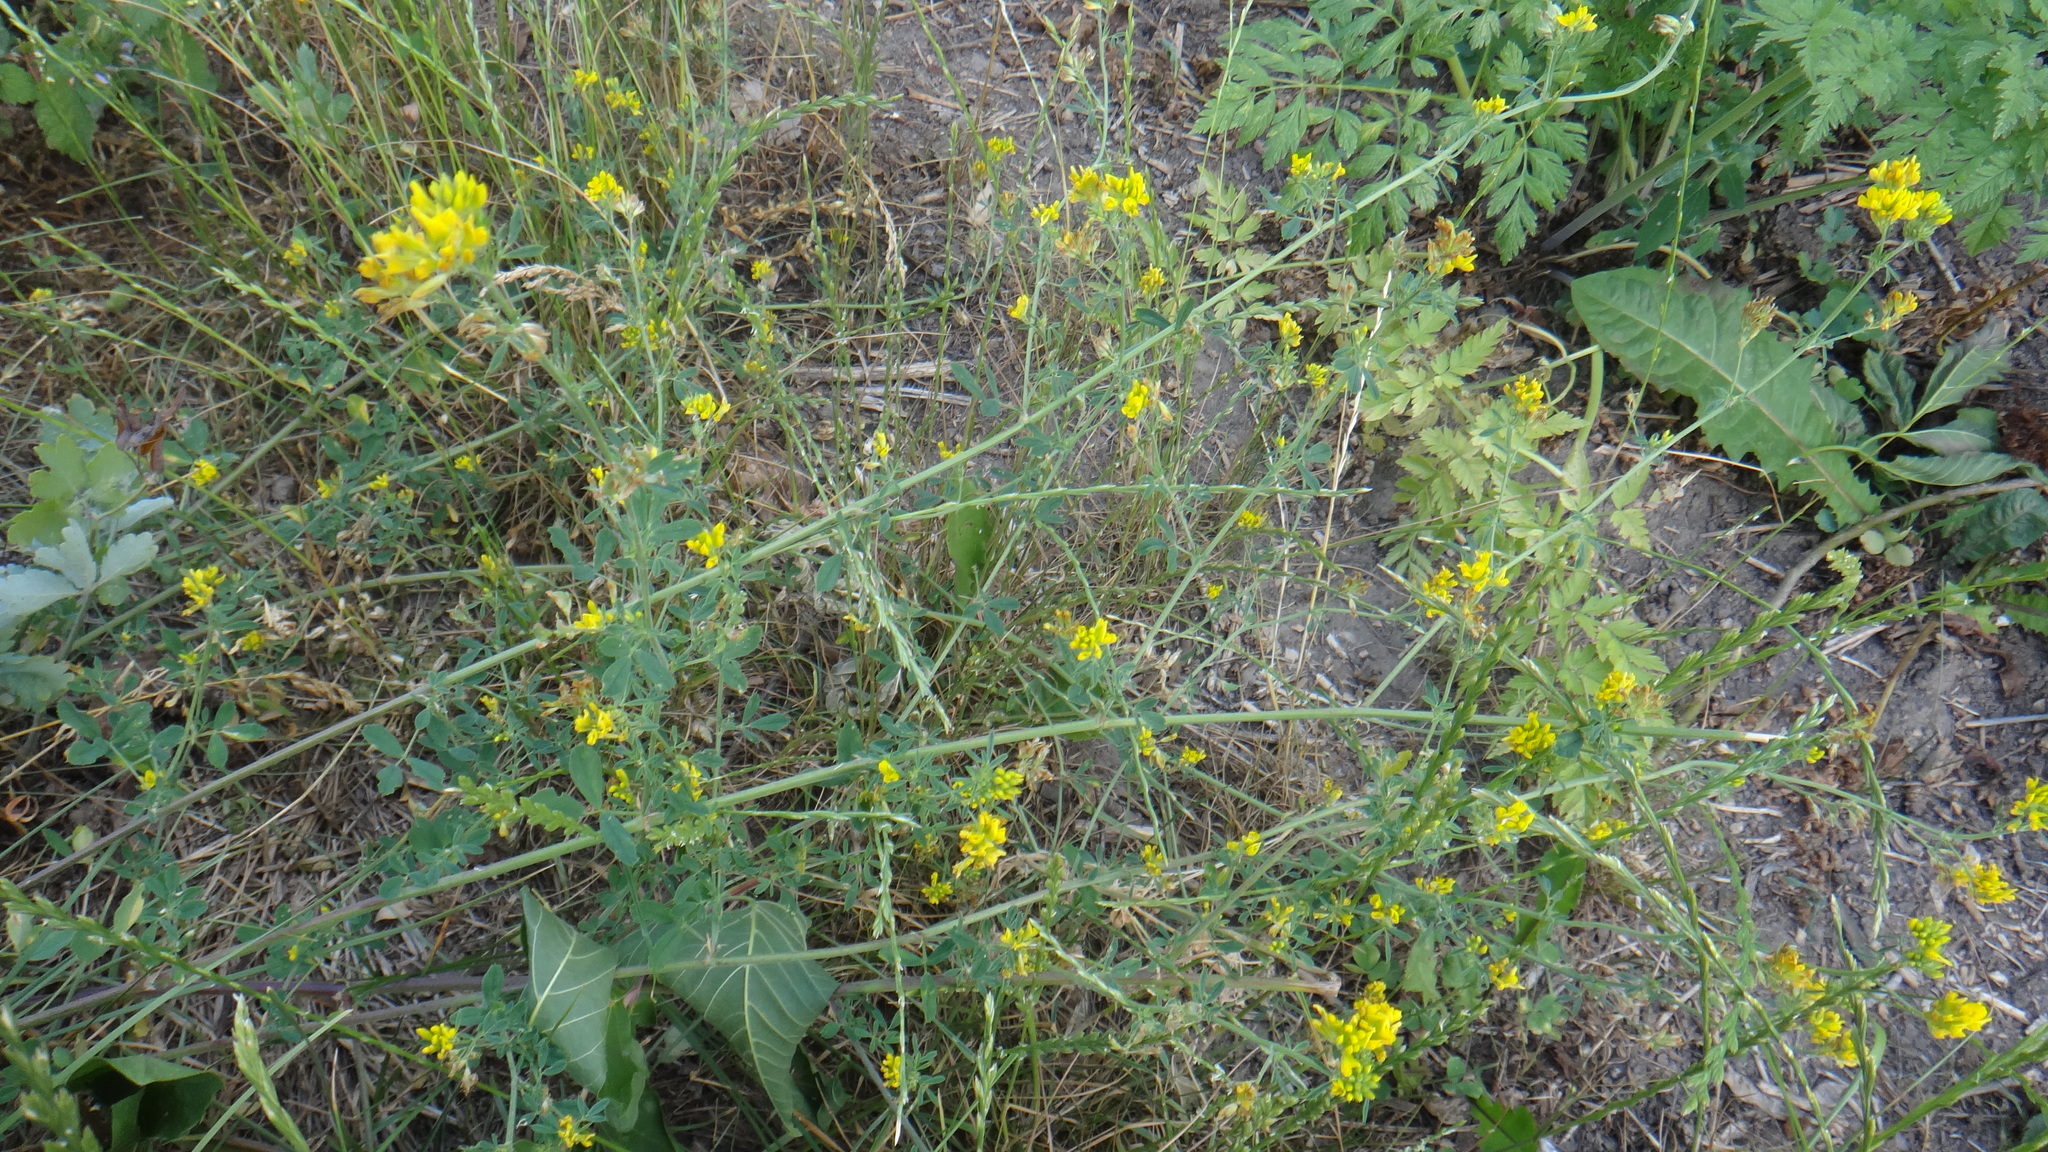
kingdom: Plantae
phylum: Tracheophyta
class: Magnoliopsida
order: Fabales
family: Fabaceae
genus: Medicago
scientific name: Medicago falcata
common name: Sickle medick
